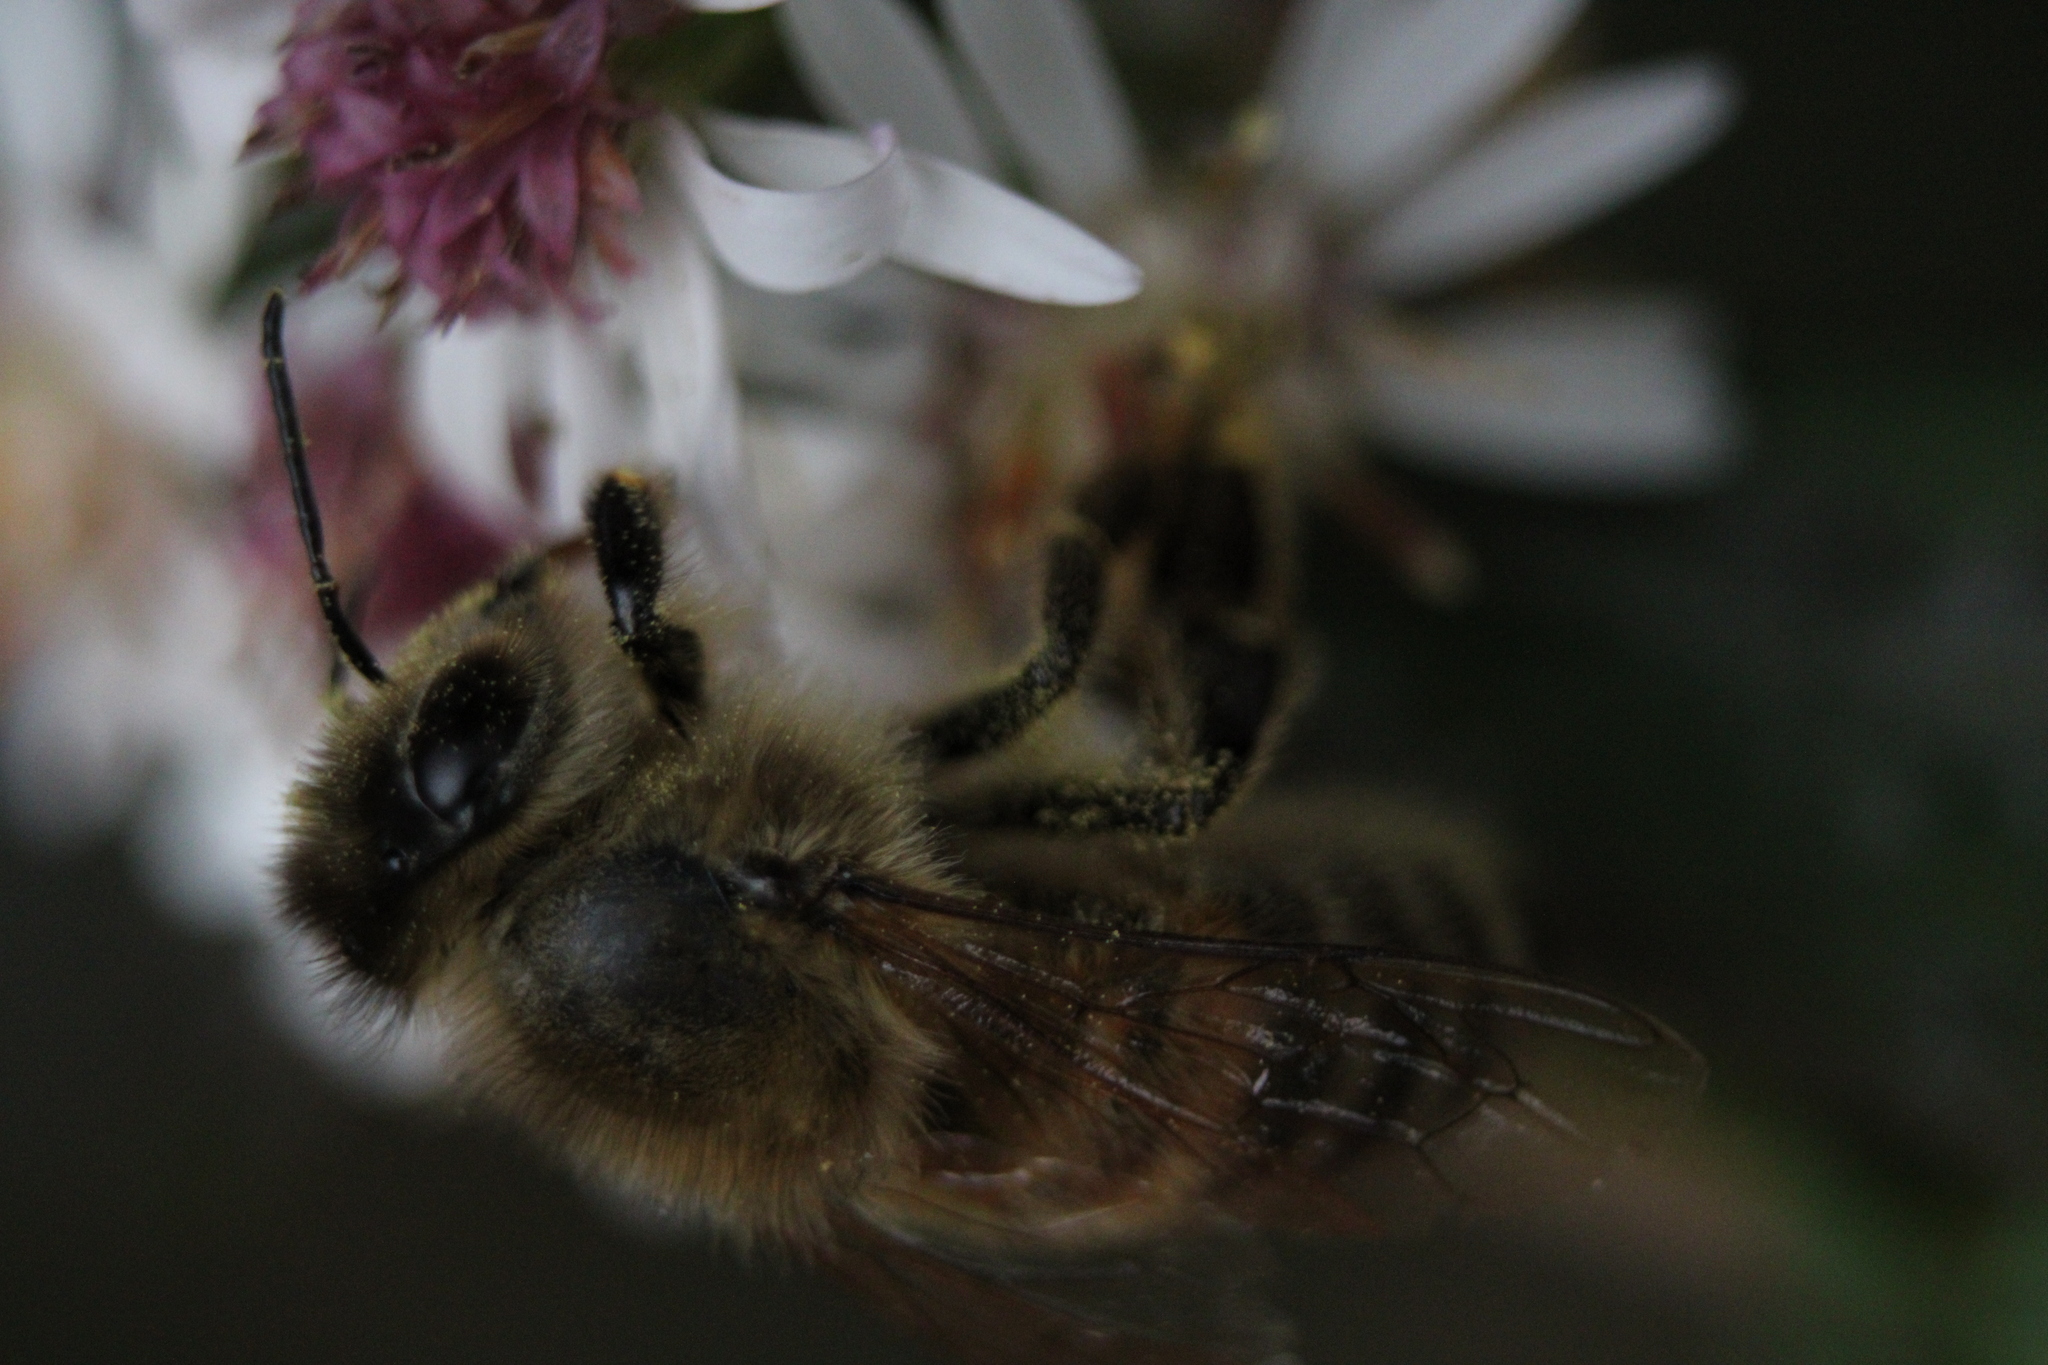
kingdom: Animalia
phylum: Arthropoda
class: Insecta
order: Hymenoptera
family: Apidae
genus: Apis
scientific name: Apis mellifera
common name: Honey bee
